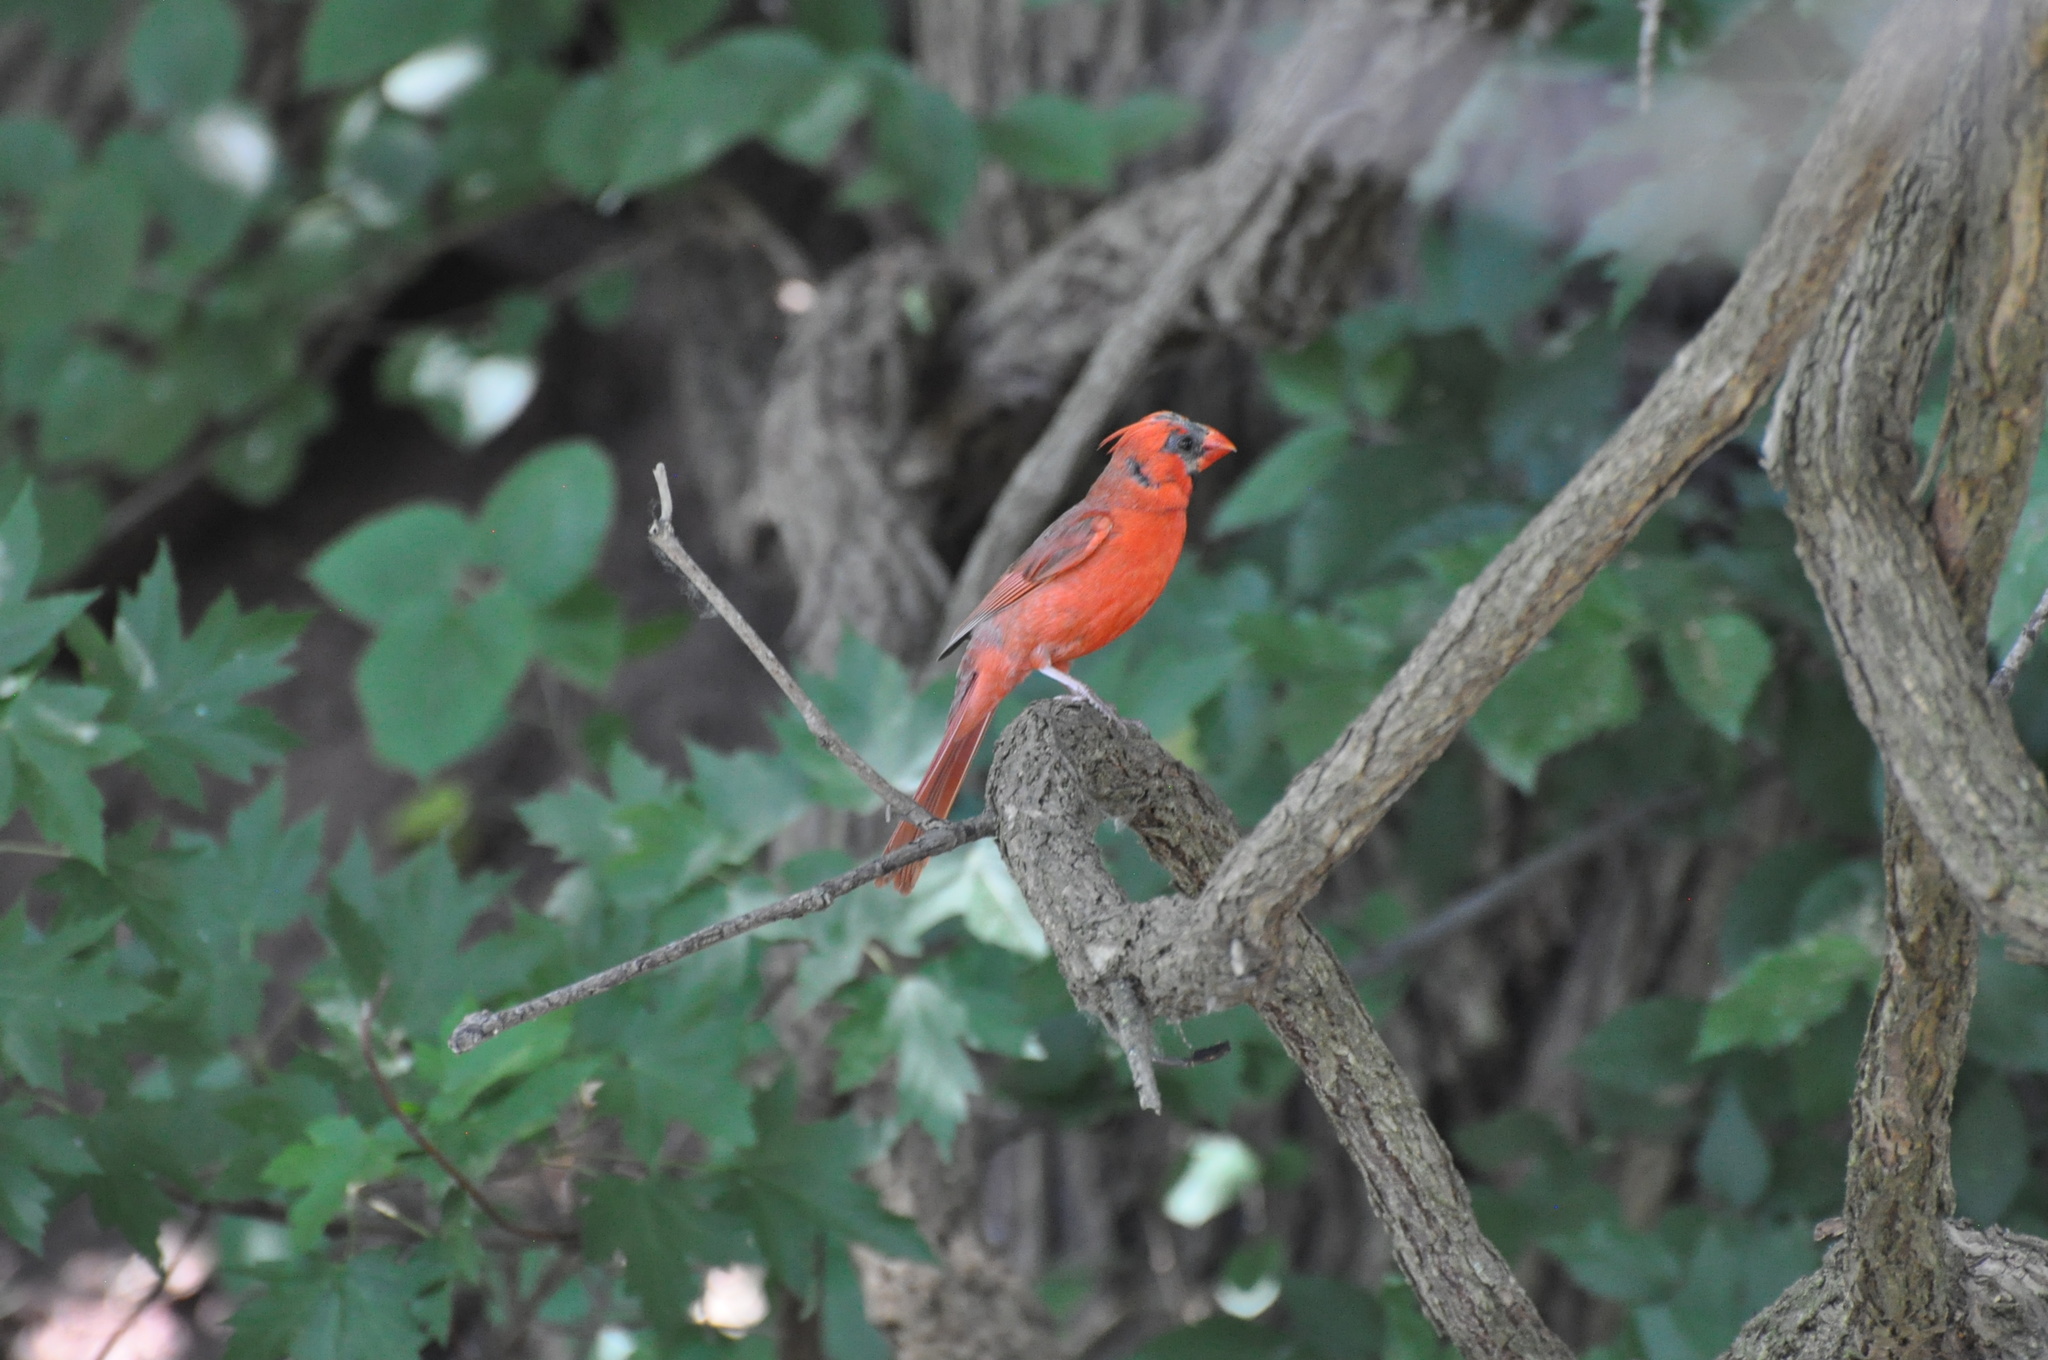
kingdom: Animalia
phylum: Chordata
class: Aves
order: Passeriformes
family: Cardinalidae
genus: Cardinalis
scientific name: Cardinalis cardinalis
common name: Northern cardinal
